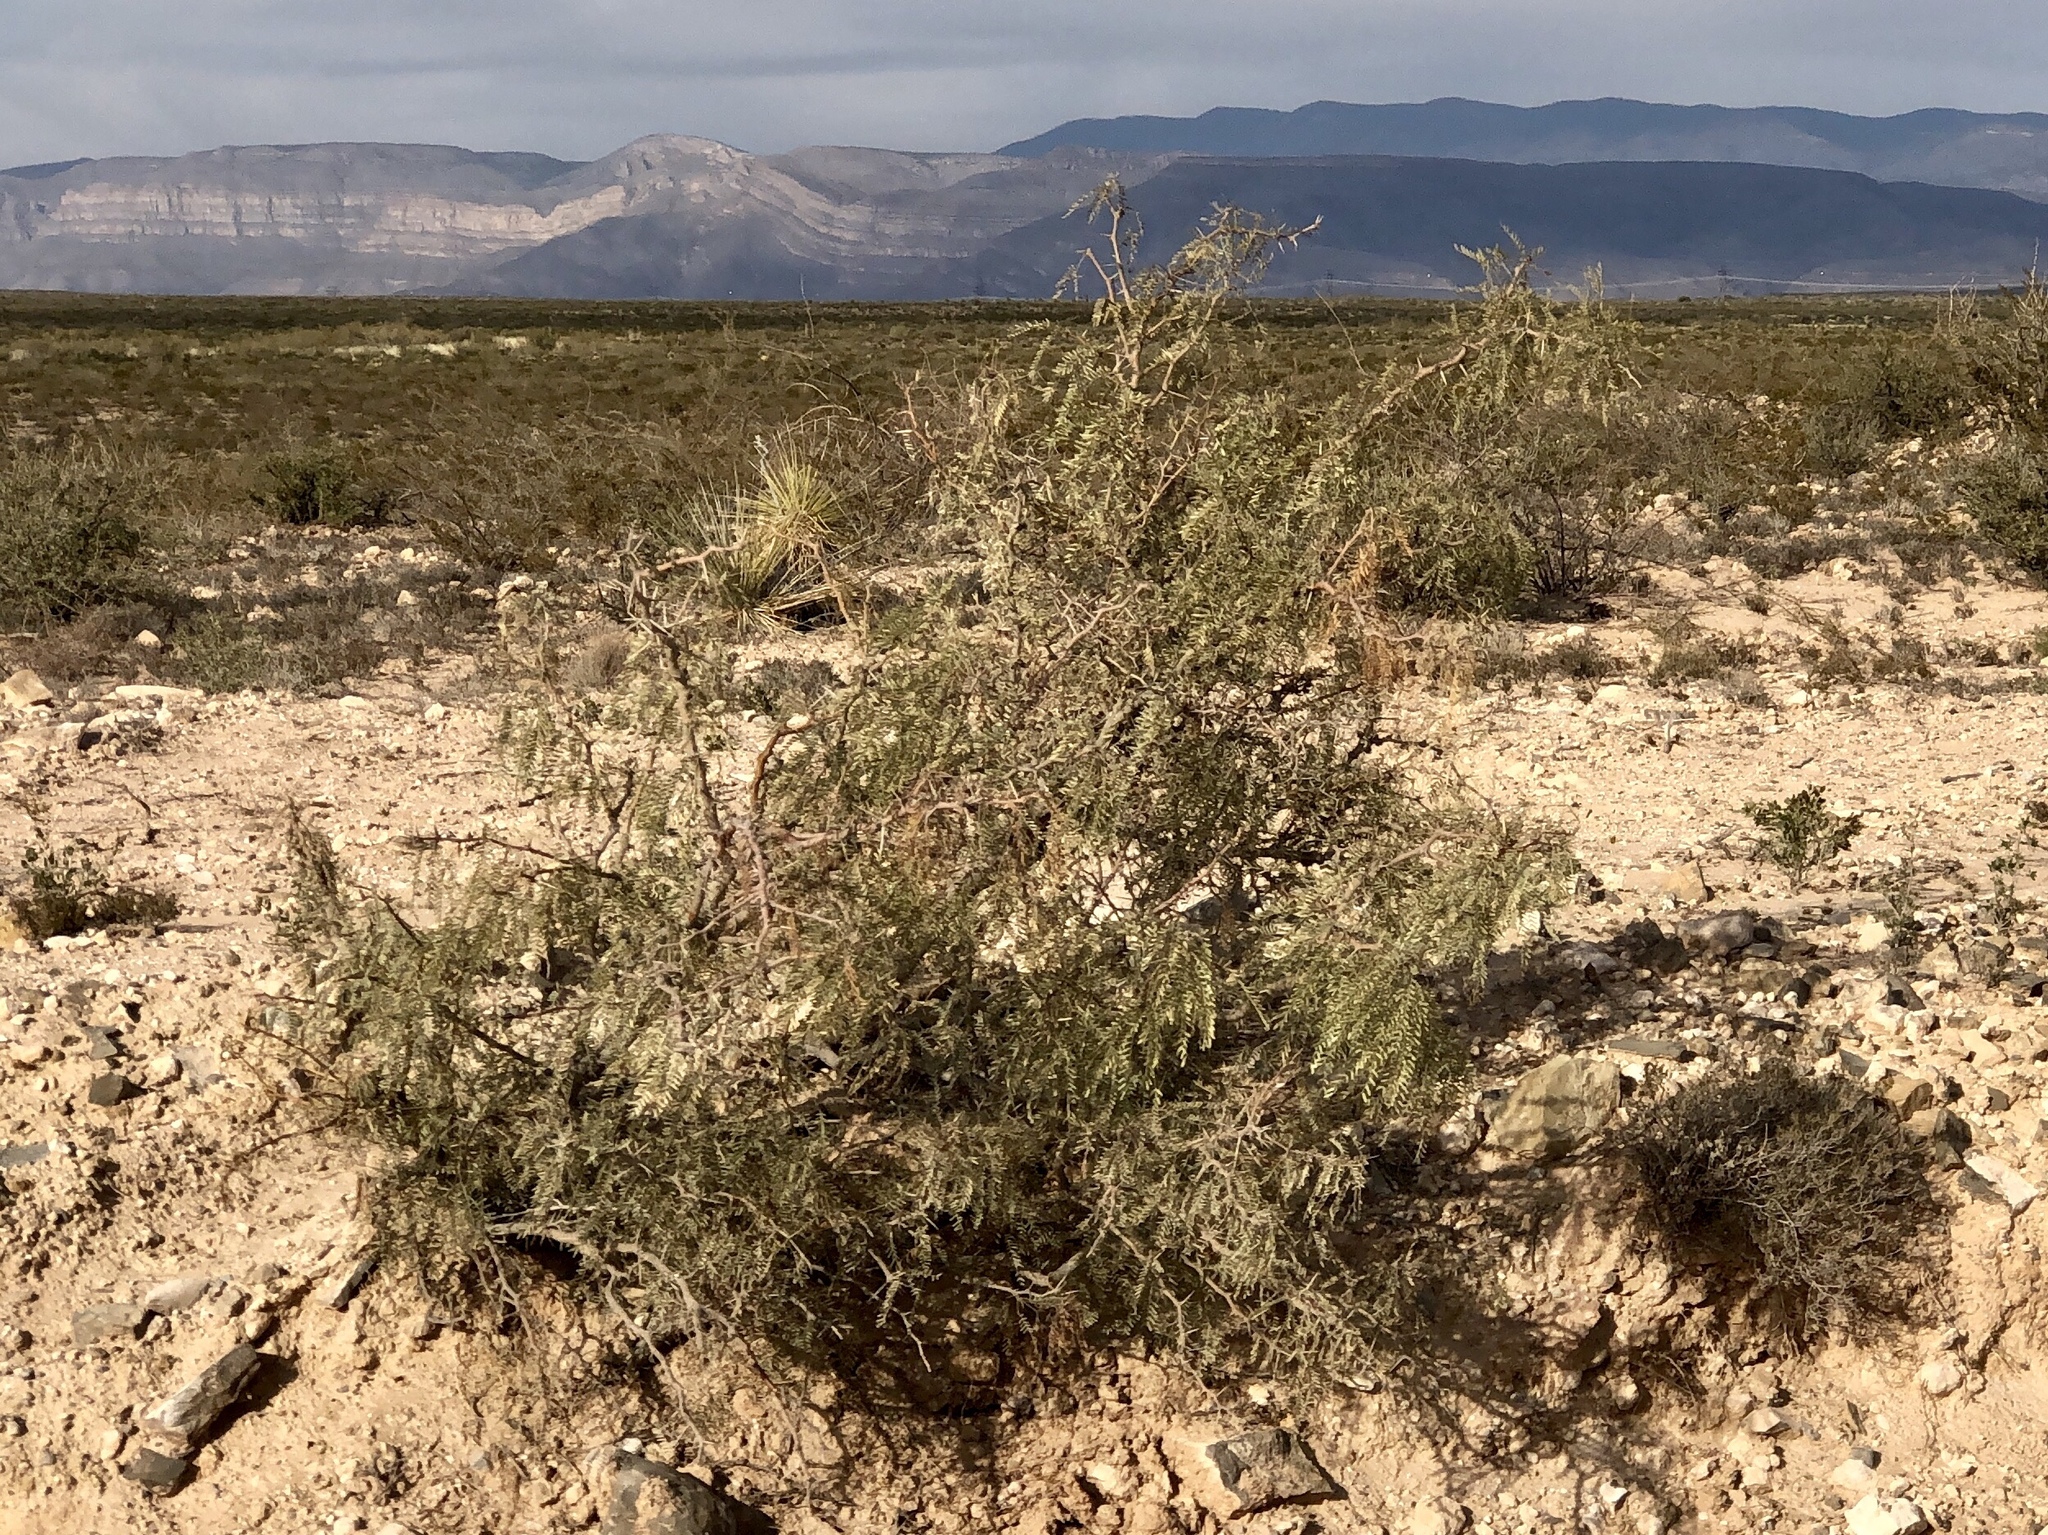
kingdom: Plantae
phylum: Tracheophyta
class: Magnoliopsida
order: Fabales
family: Fabaceae
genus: Prosopis
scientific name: Prosopis glandulosa
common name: Honey mesquite
